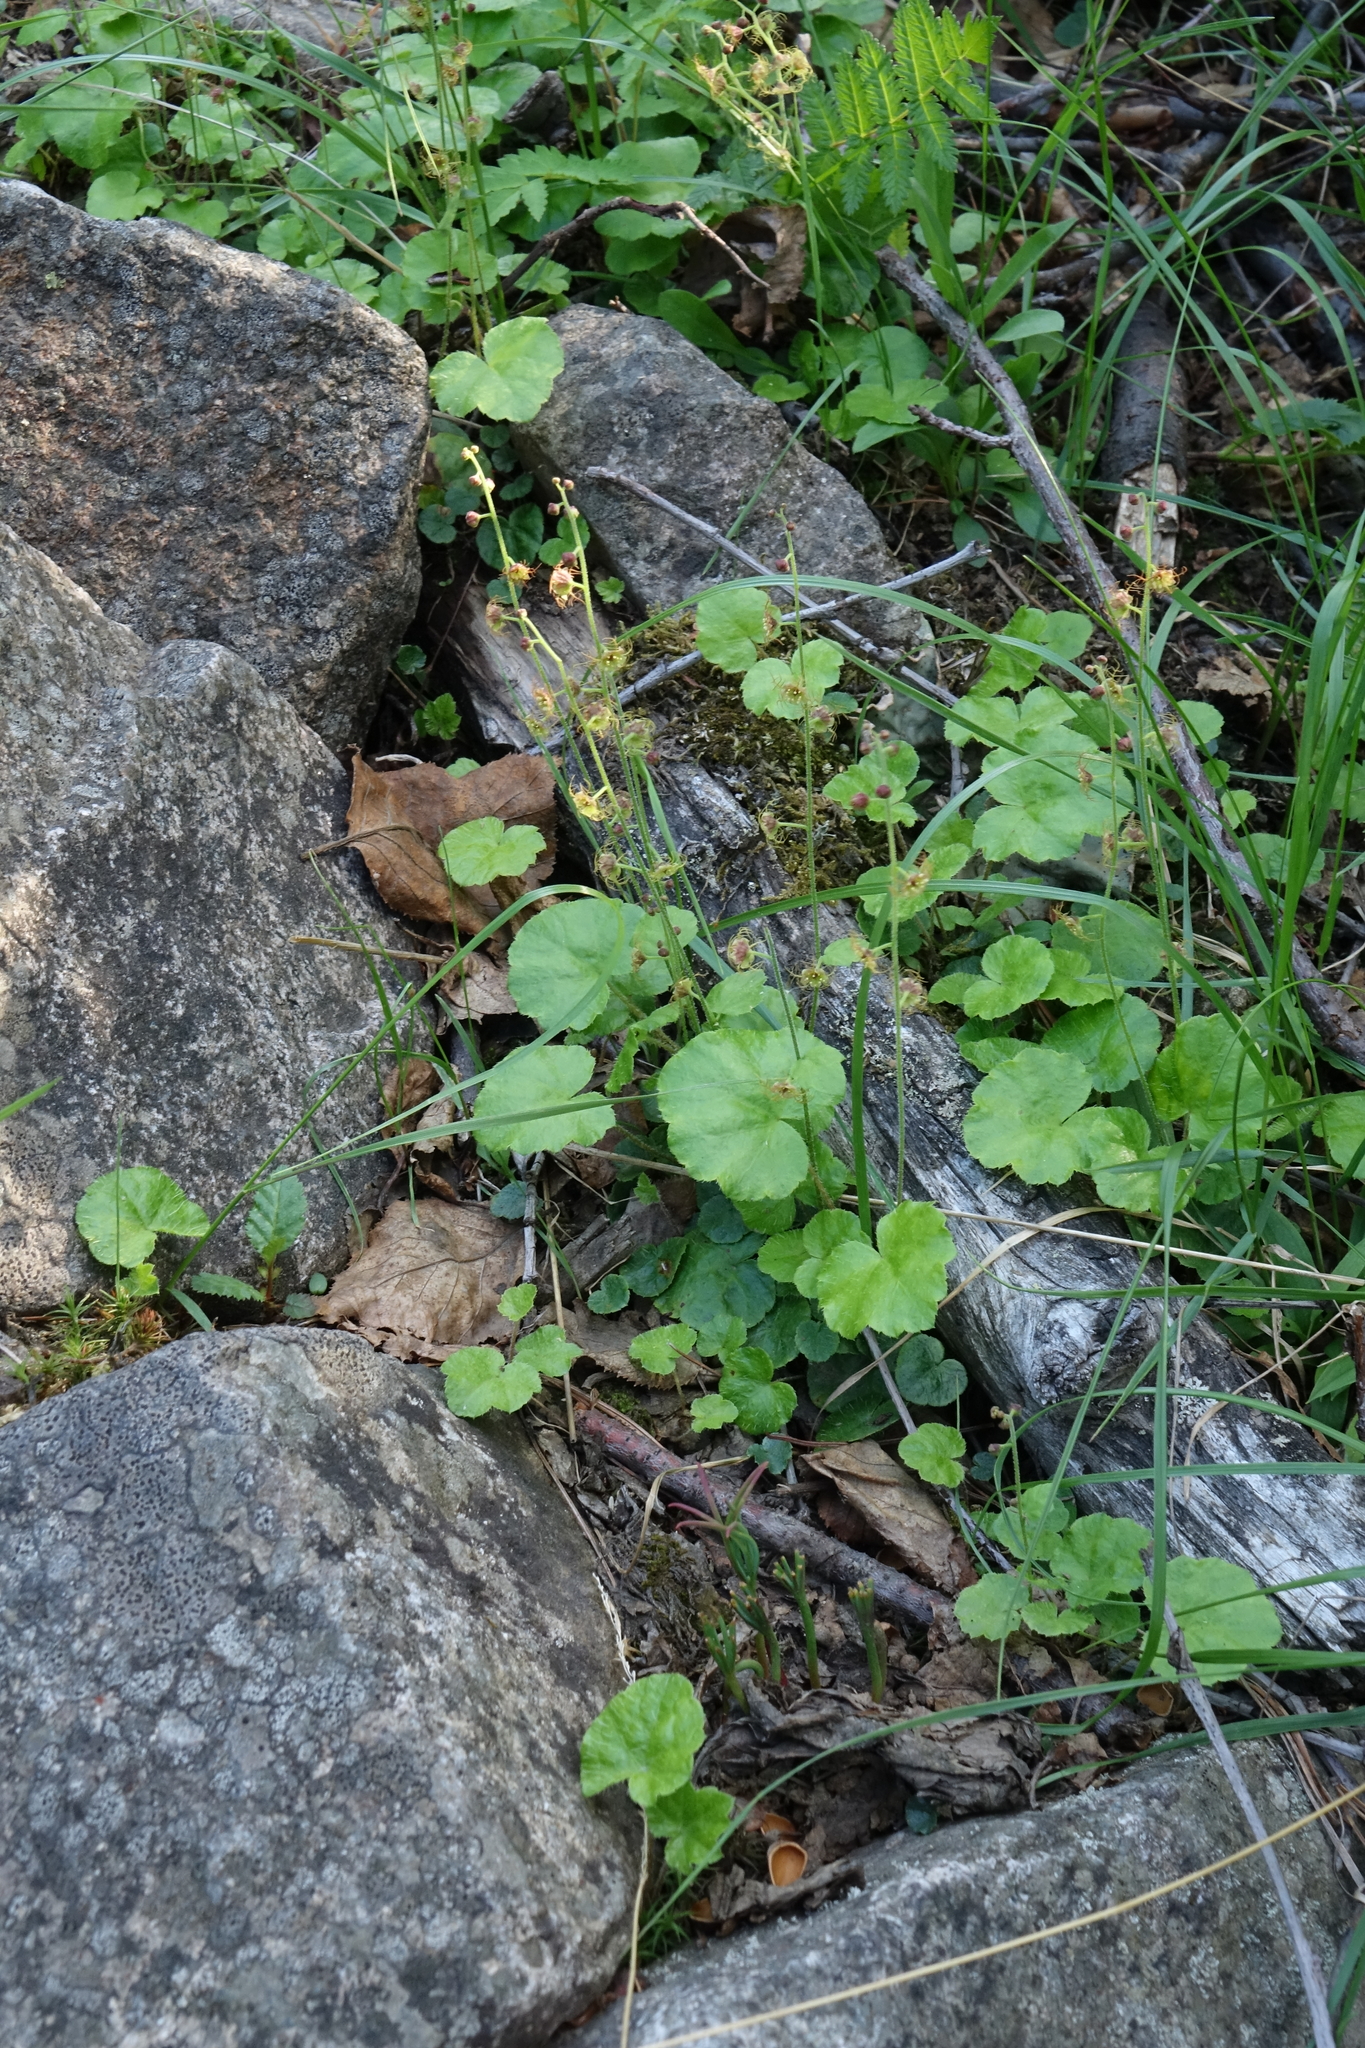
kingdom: Plantae
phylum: Tracheophyta
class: Magnoliopsida
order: Saxifragales
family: Saxifragaceae
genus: Mitella
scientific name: Mitella nuda
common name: Bare-stemmed bishop's-cap
